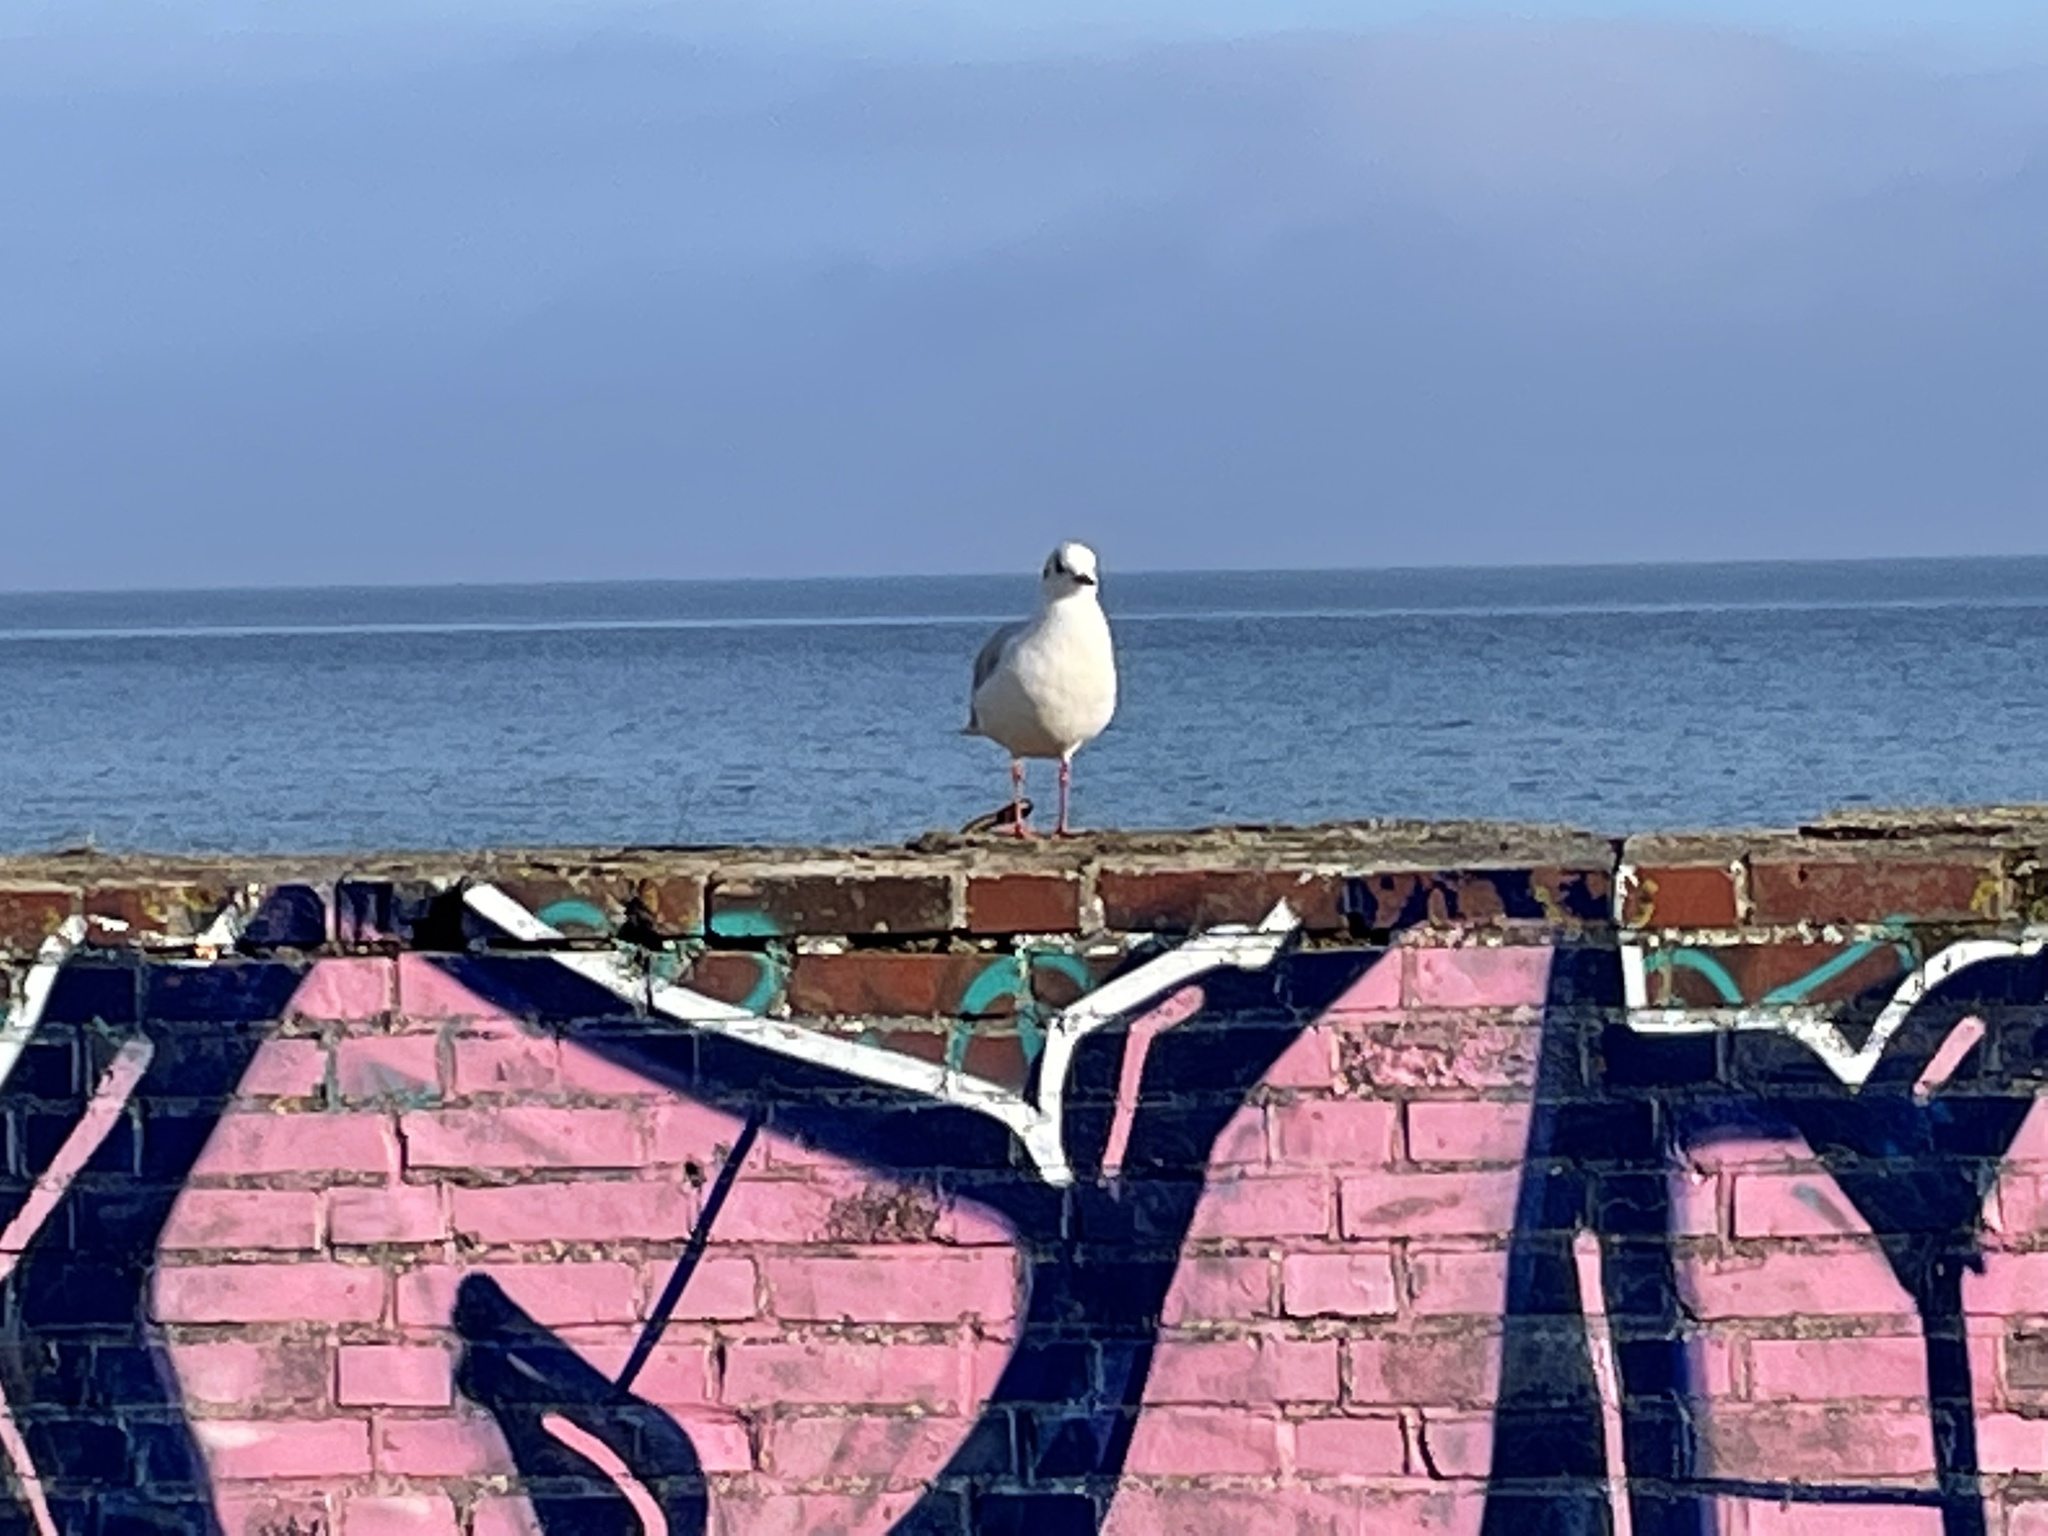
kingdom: Animalia
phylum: Chordata
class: Aves
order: Charadriiformes
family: Laridae
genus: Chroicocephalus
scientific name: Chroicocephalus ridibundus
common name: Black-headed gull
